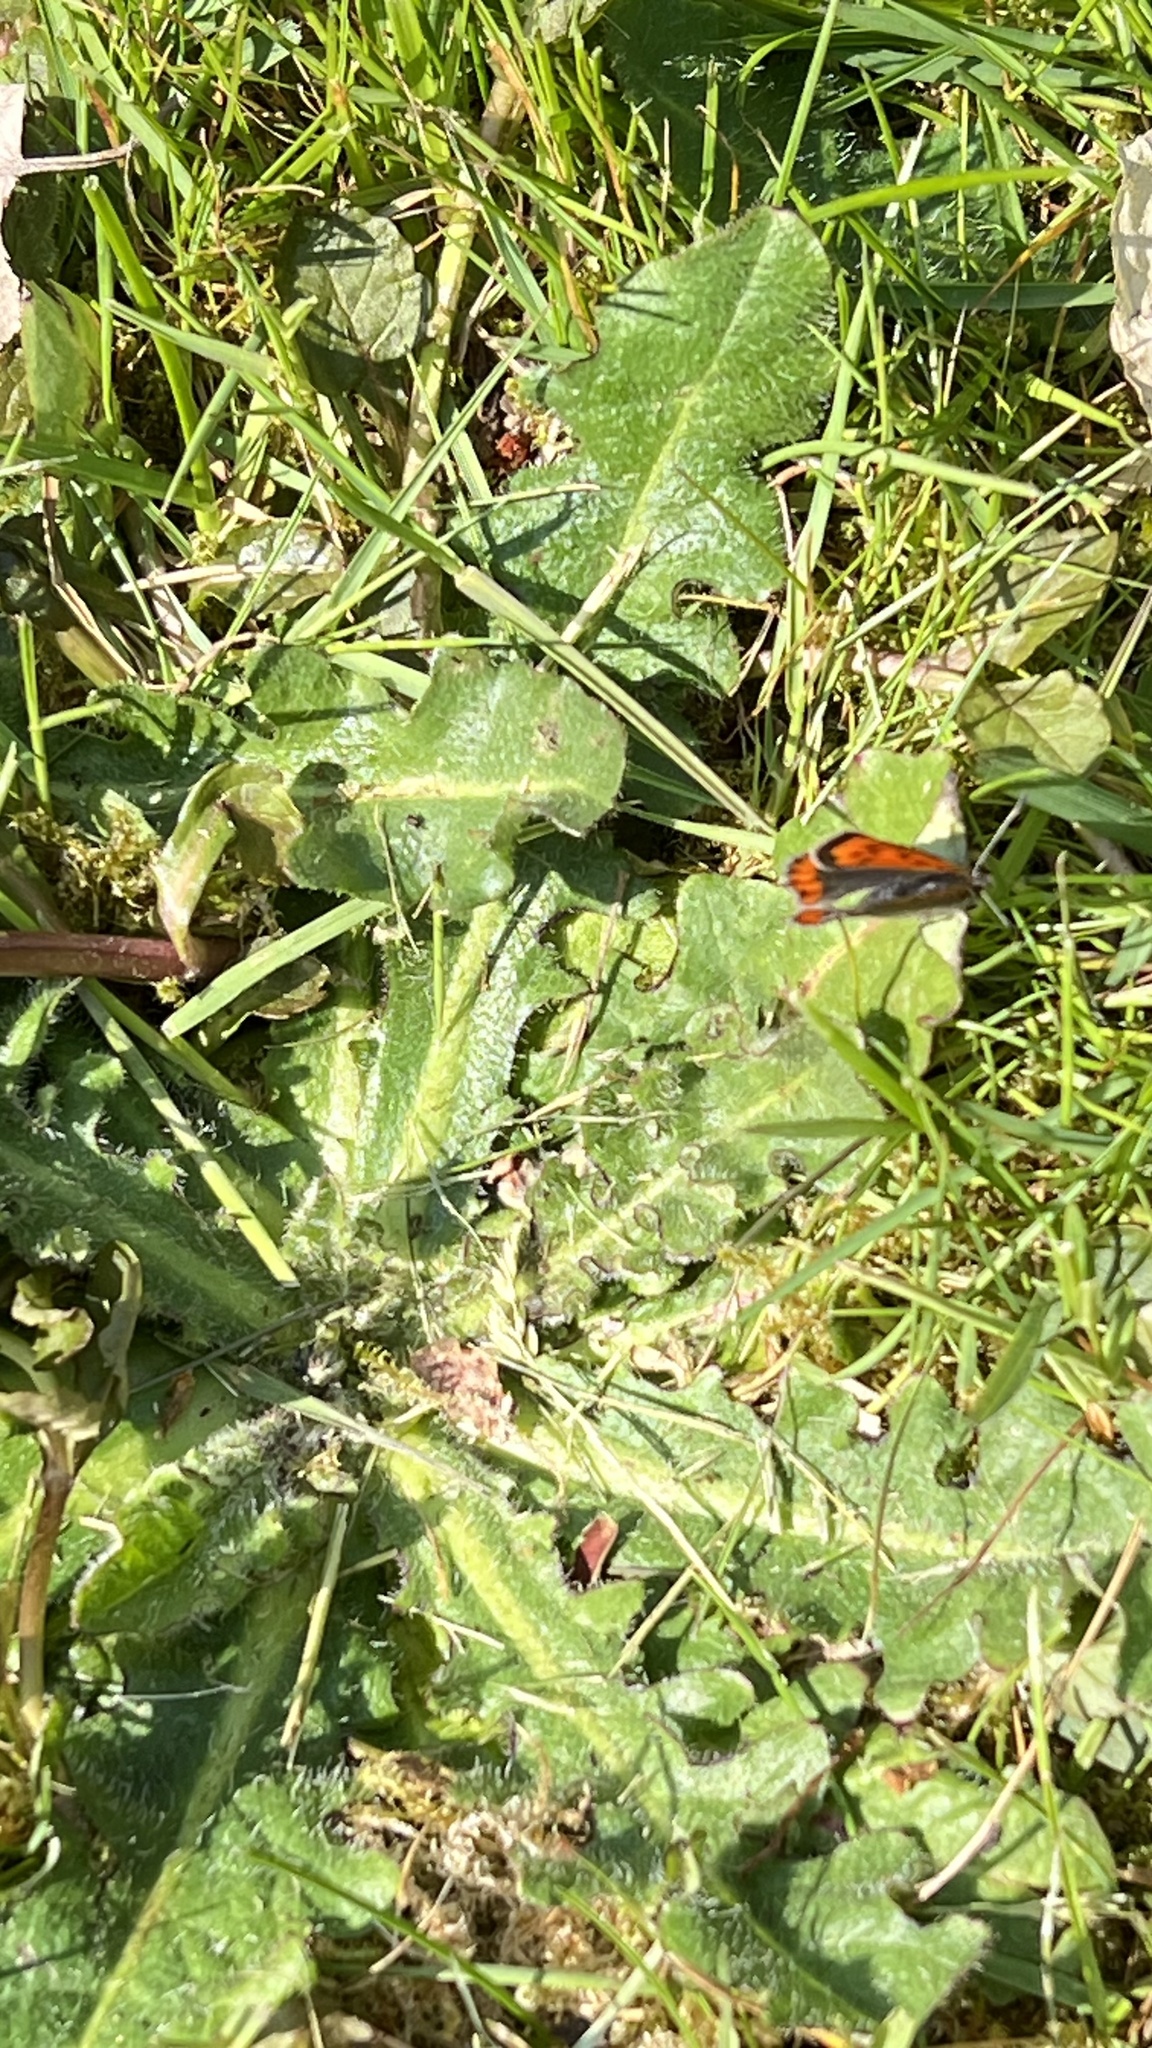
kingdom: Animalia
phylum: Arthropoda
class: Insecta
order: Lepidoptera
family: Lycaenidae
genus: Lycaena
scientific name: Lycaena phlaeas
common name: Small copper
